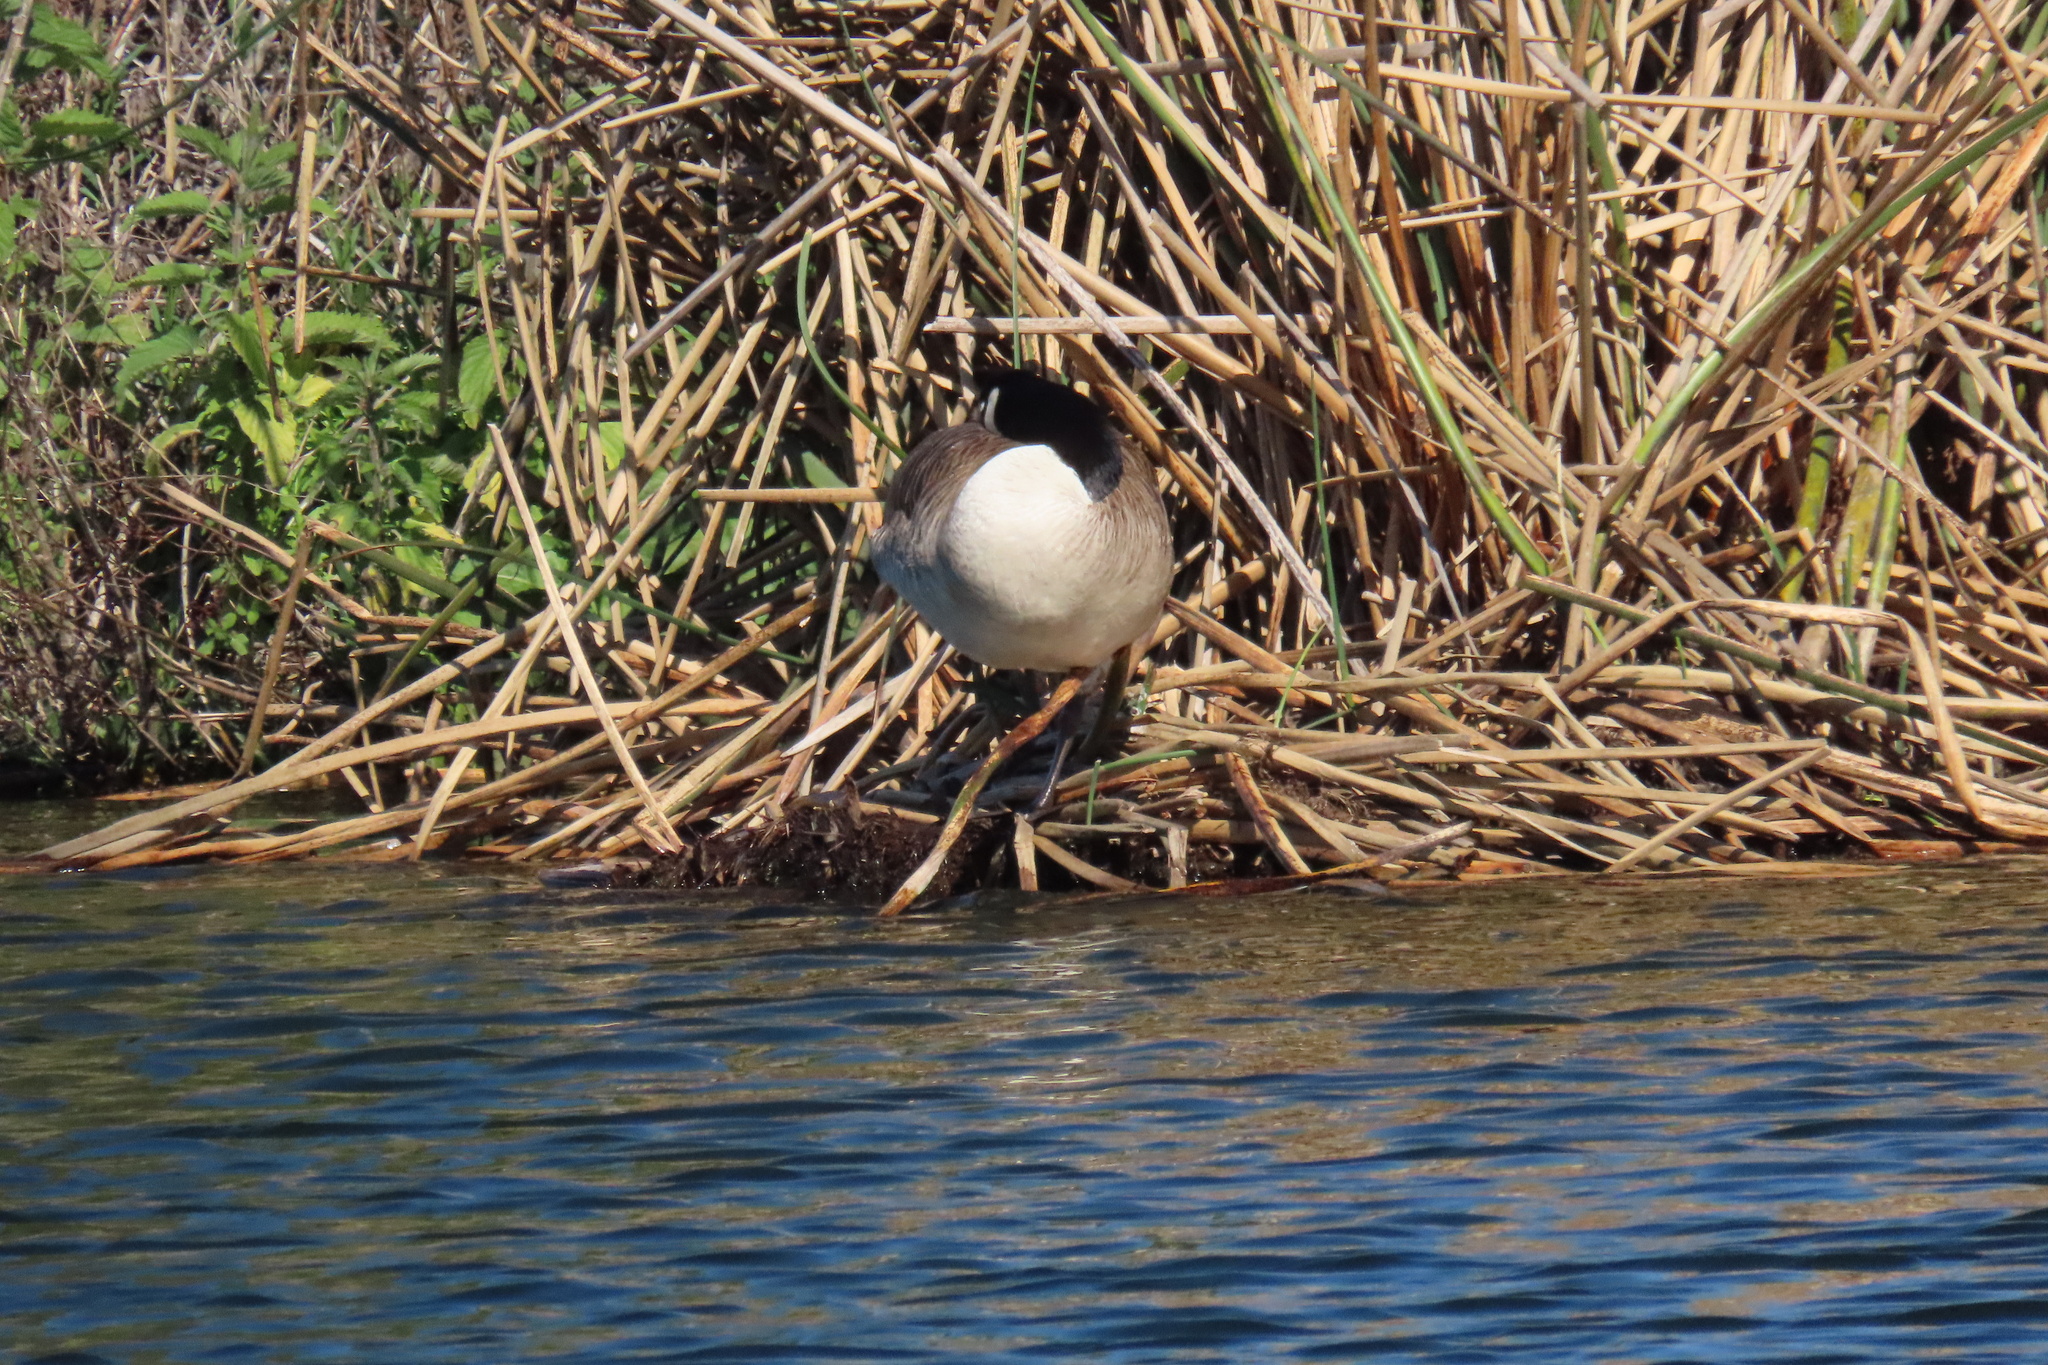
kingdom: Animalia
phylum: Chordata
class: Aves
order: Anseriformes
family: Anatidae
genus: Branta
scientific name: Branta canadensis
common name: Canada goose
